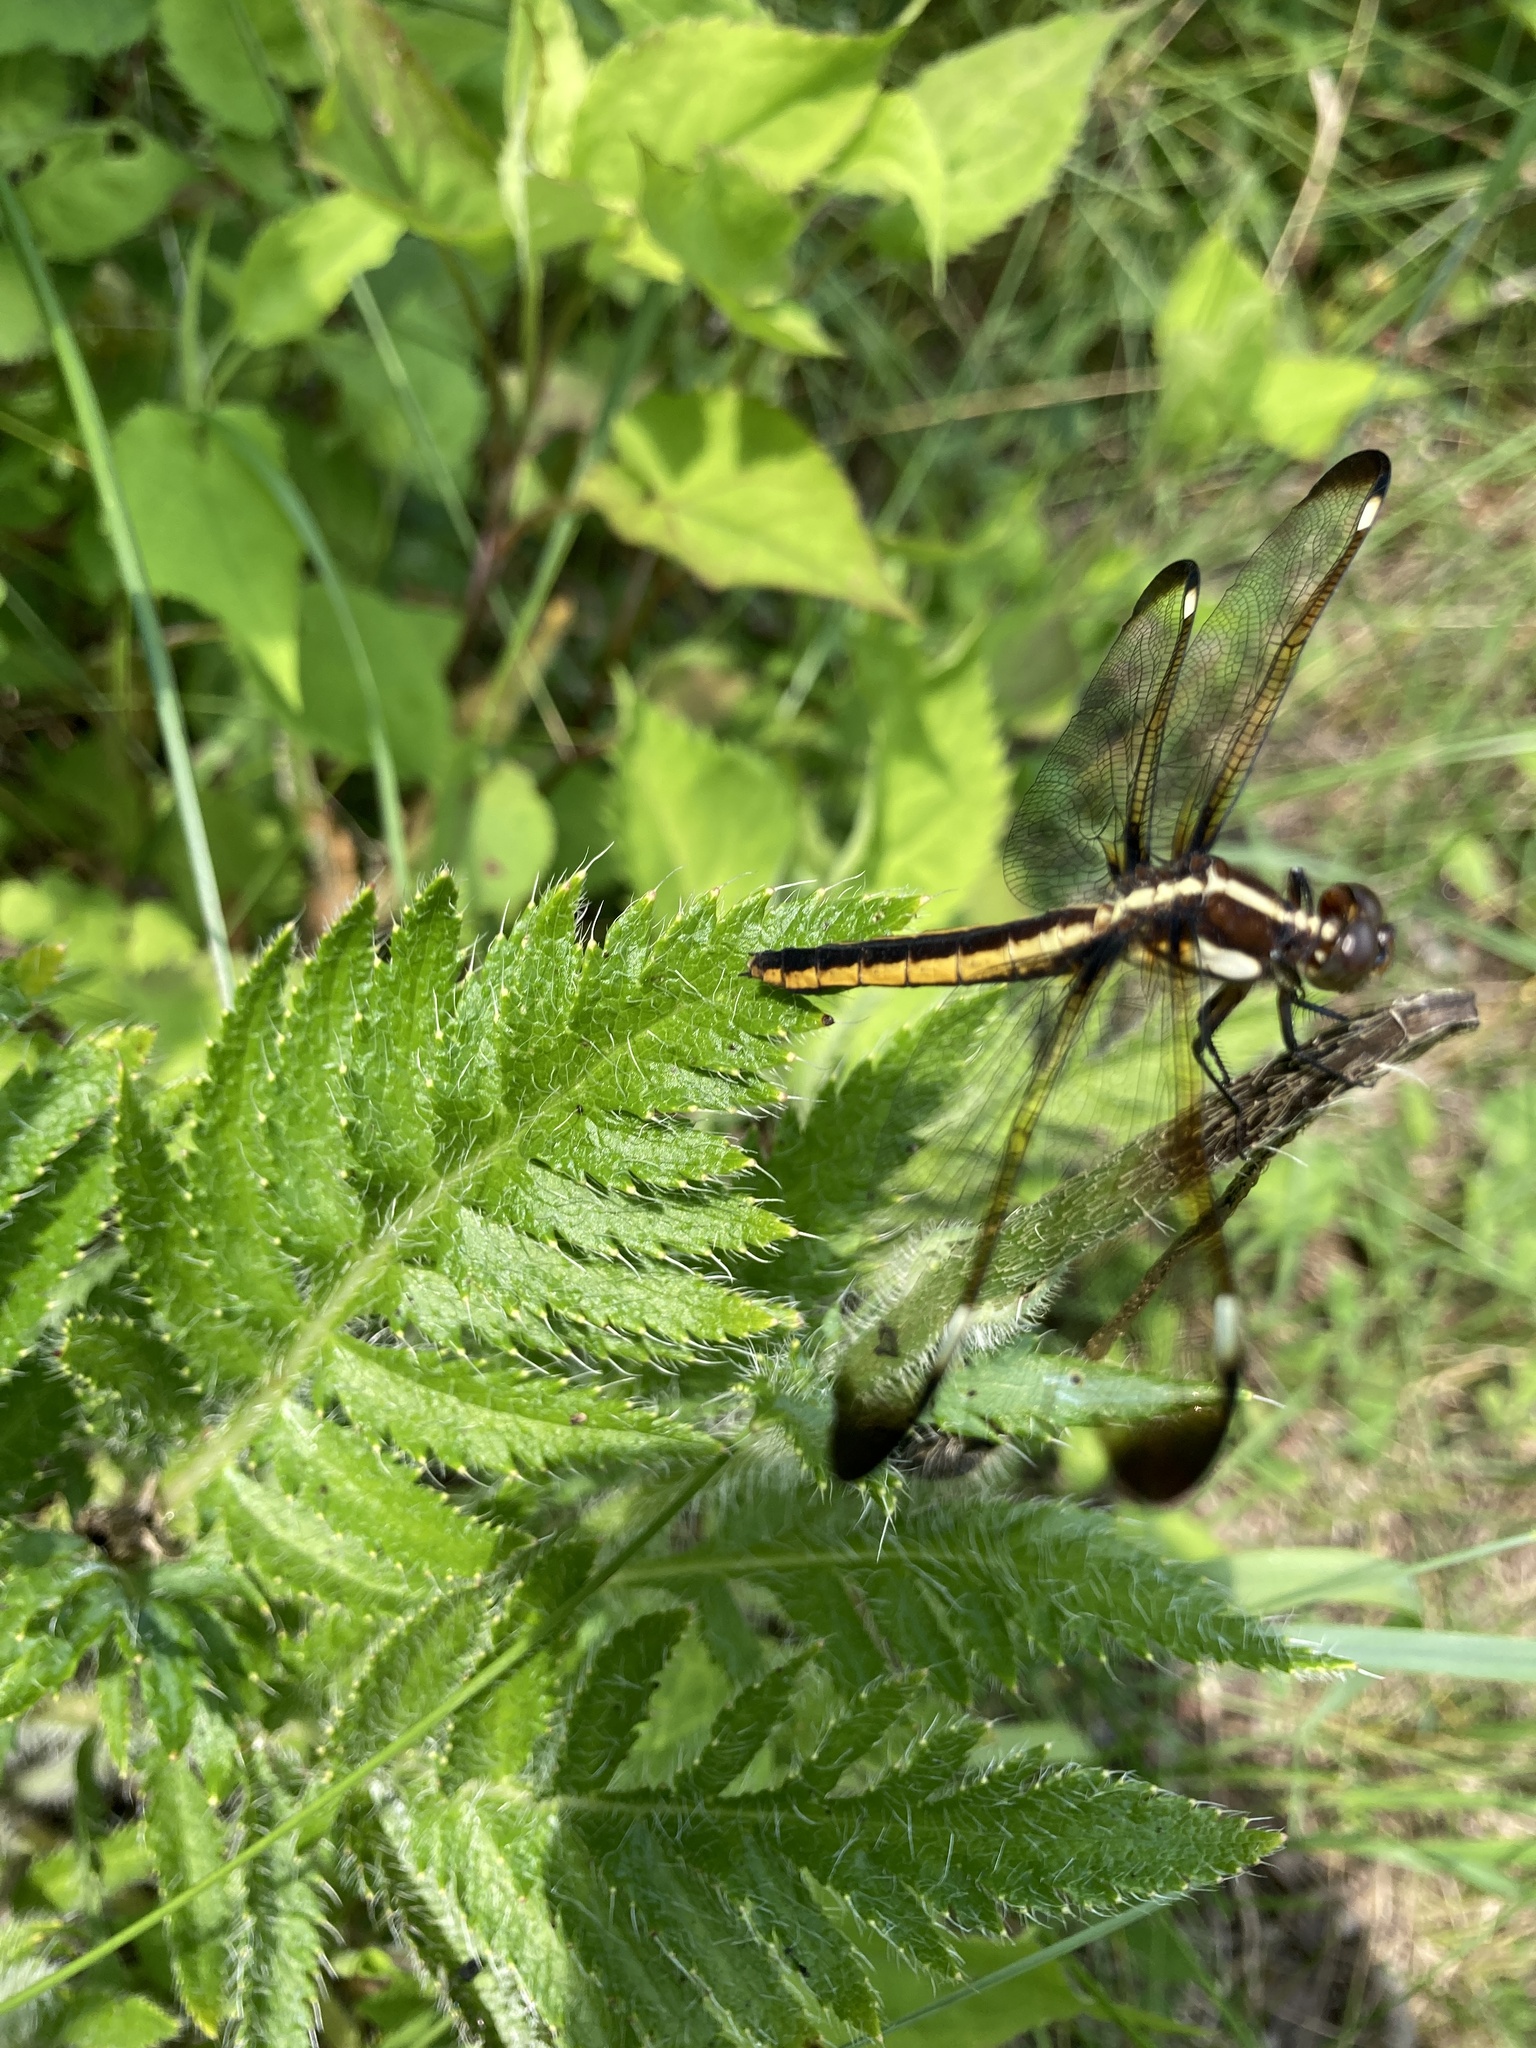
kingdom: Animalia
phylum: Arthropoda
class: Insecta
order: Odonata
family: Libellulidae
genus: Libellula
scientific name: Libellula cyanea
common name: Spangled skimmer
